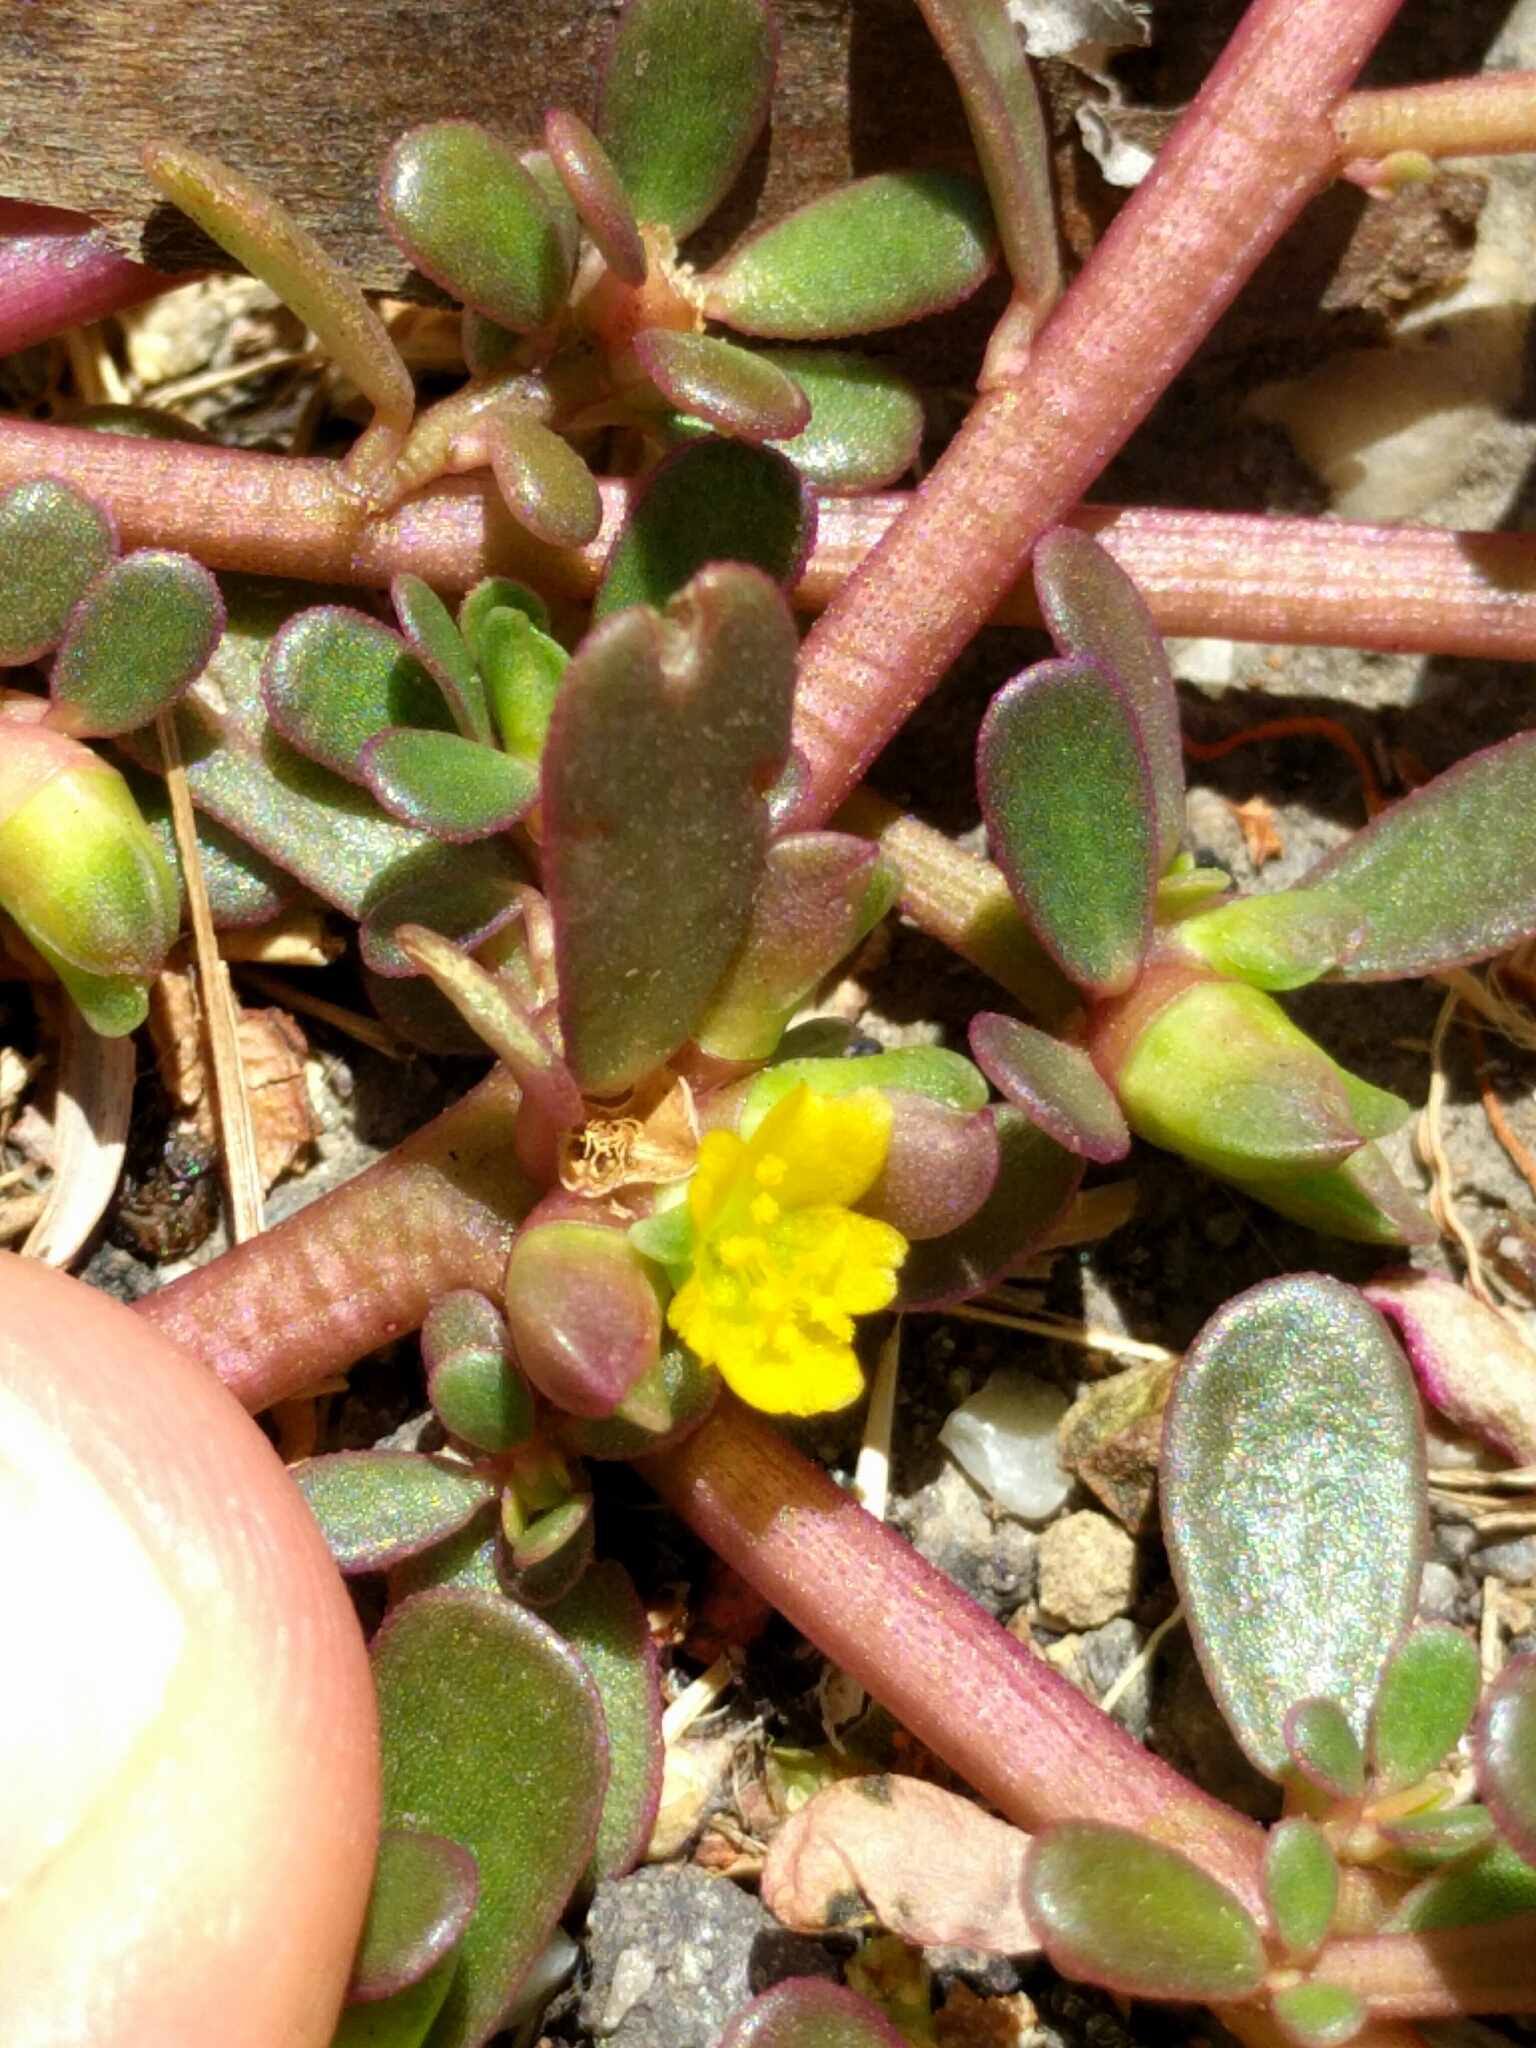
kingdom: Plantae
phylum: Tracheophyta
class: Magnoliopsida
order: Caryophyllales
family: Portulacaceae
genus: Portulaca
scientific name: Portulaca oleracea
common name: Common purslane
